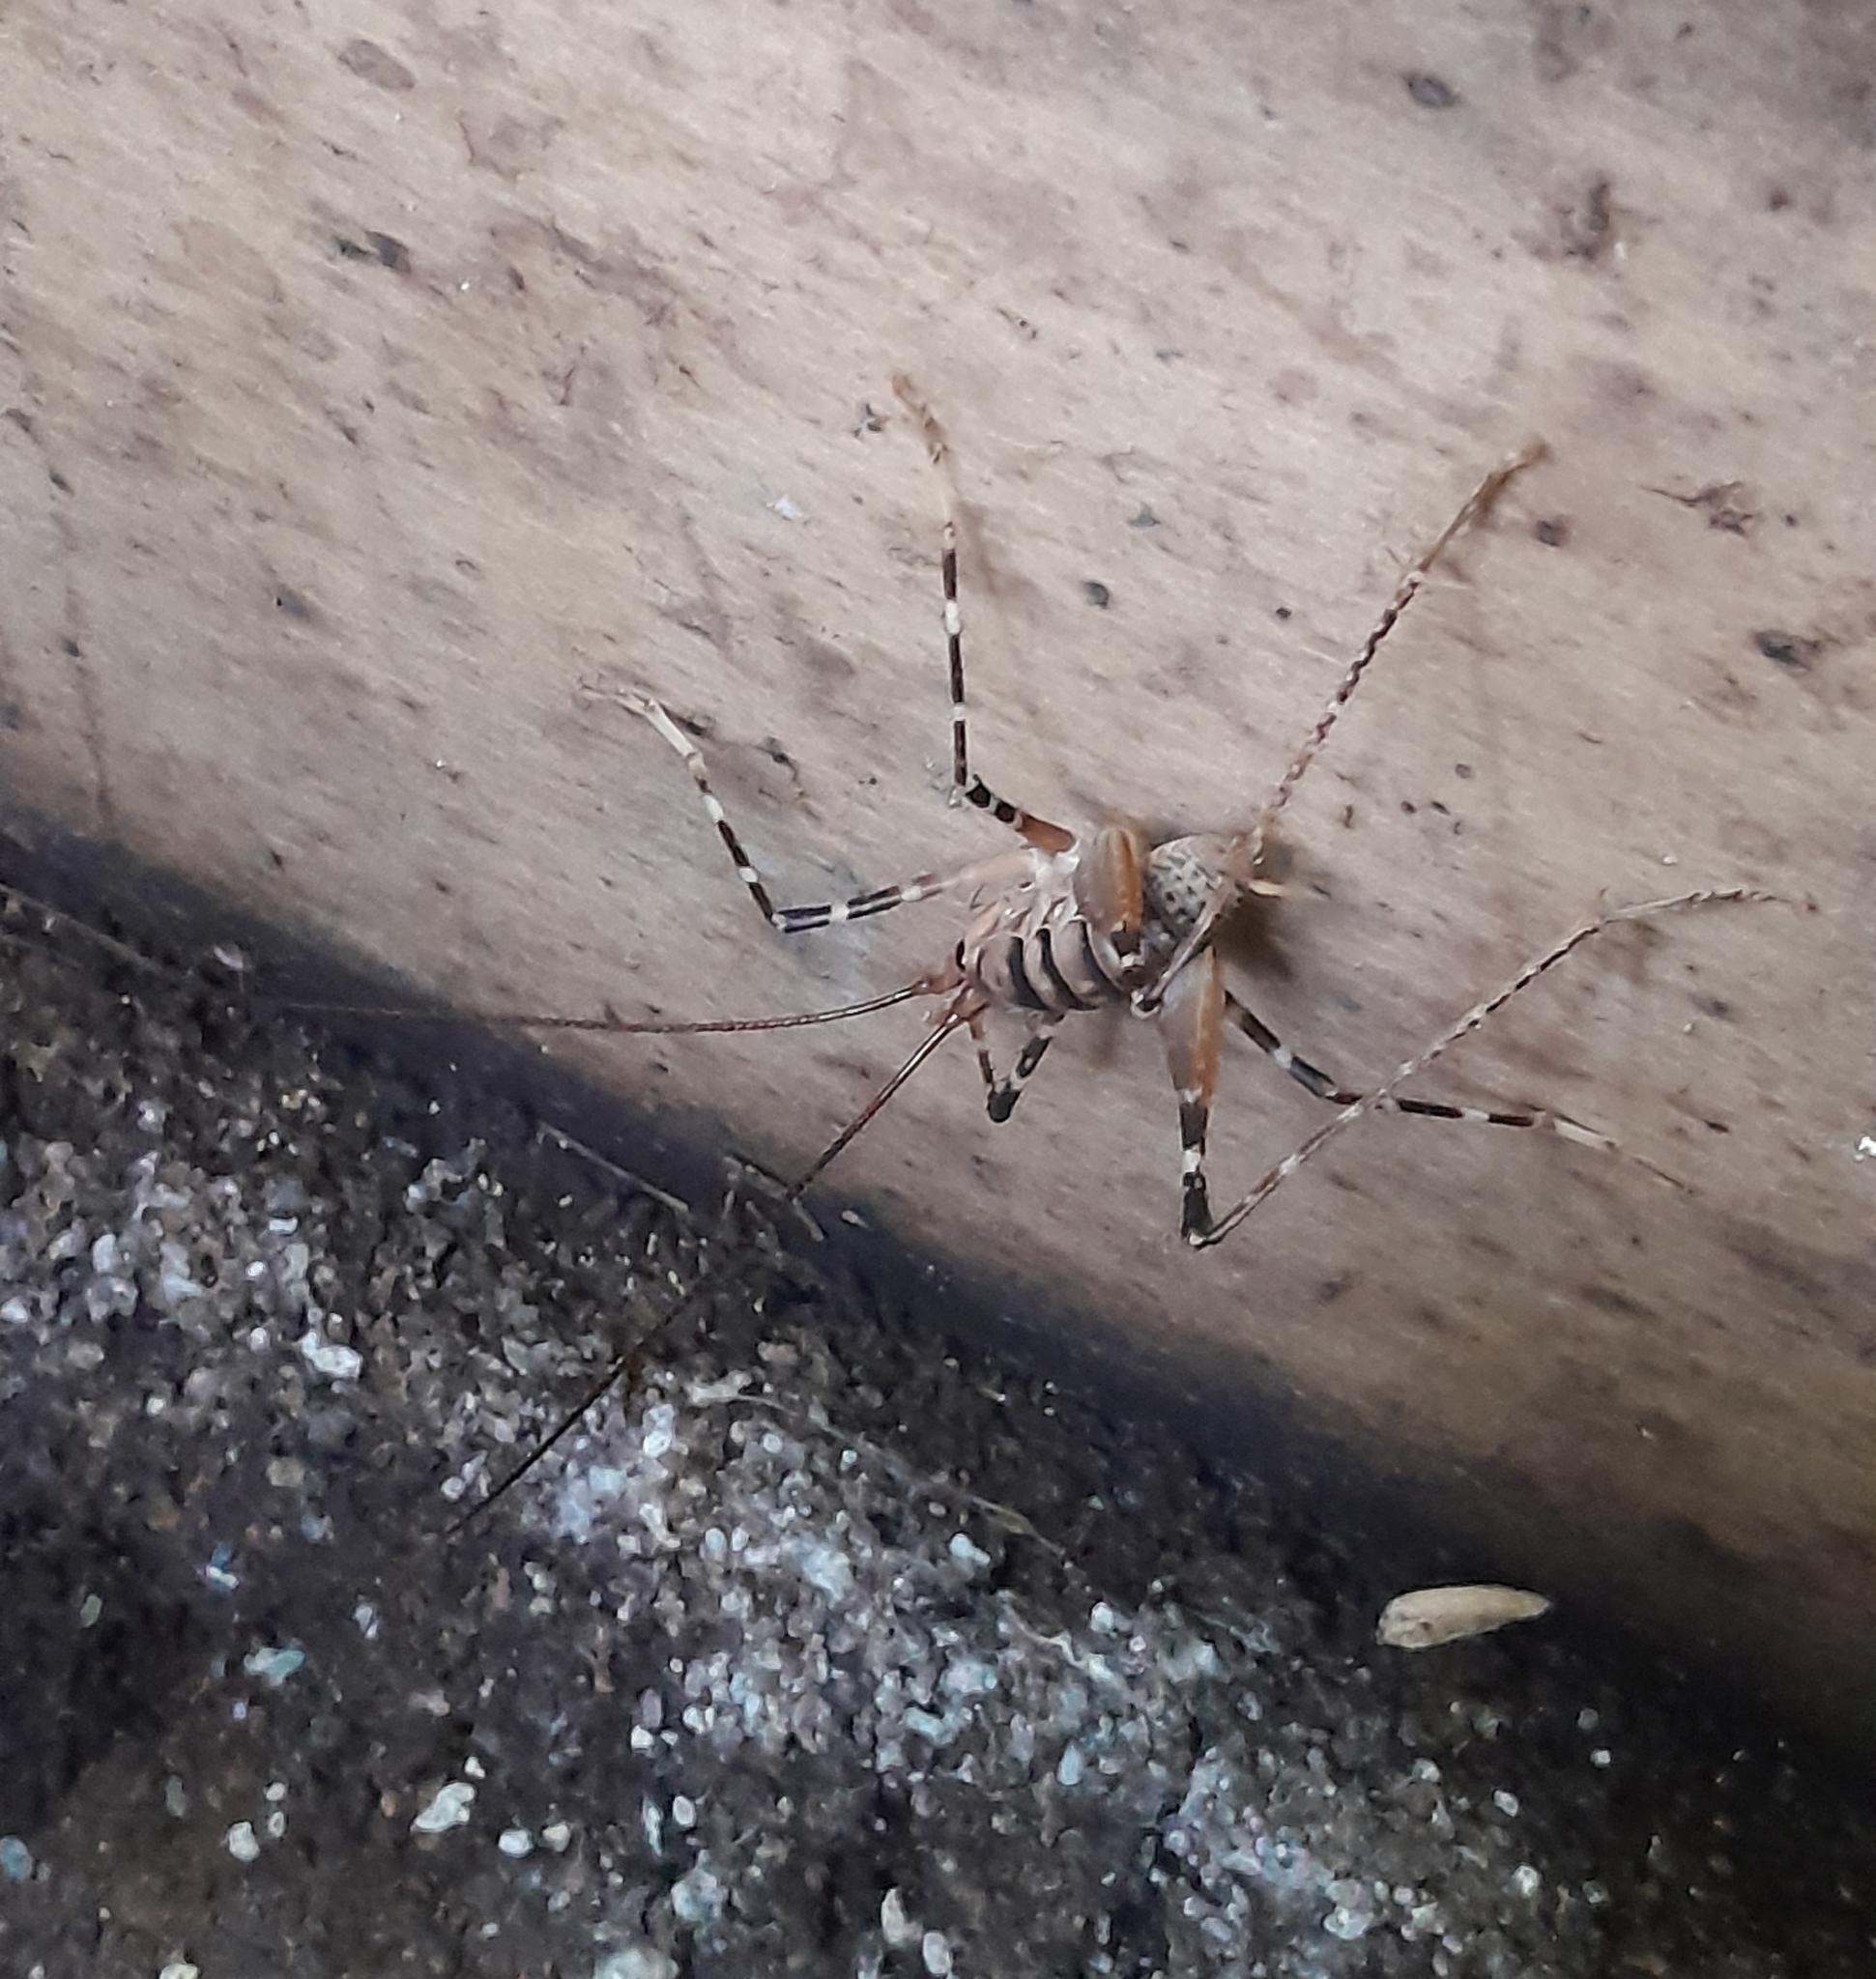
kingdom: Animalia
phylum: Arthropoda
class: Insecta
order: Orthoptera
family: Rhaphidophoridae
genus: Pachyrhamma
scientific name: Pachyrhamma edwardsii
